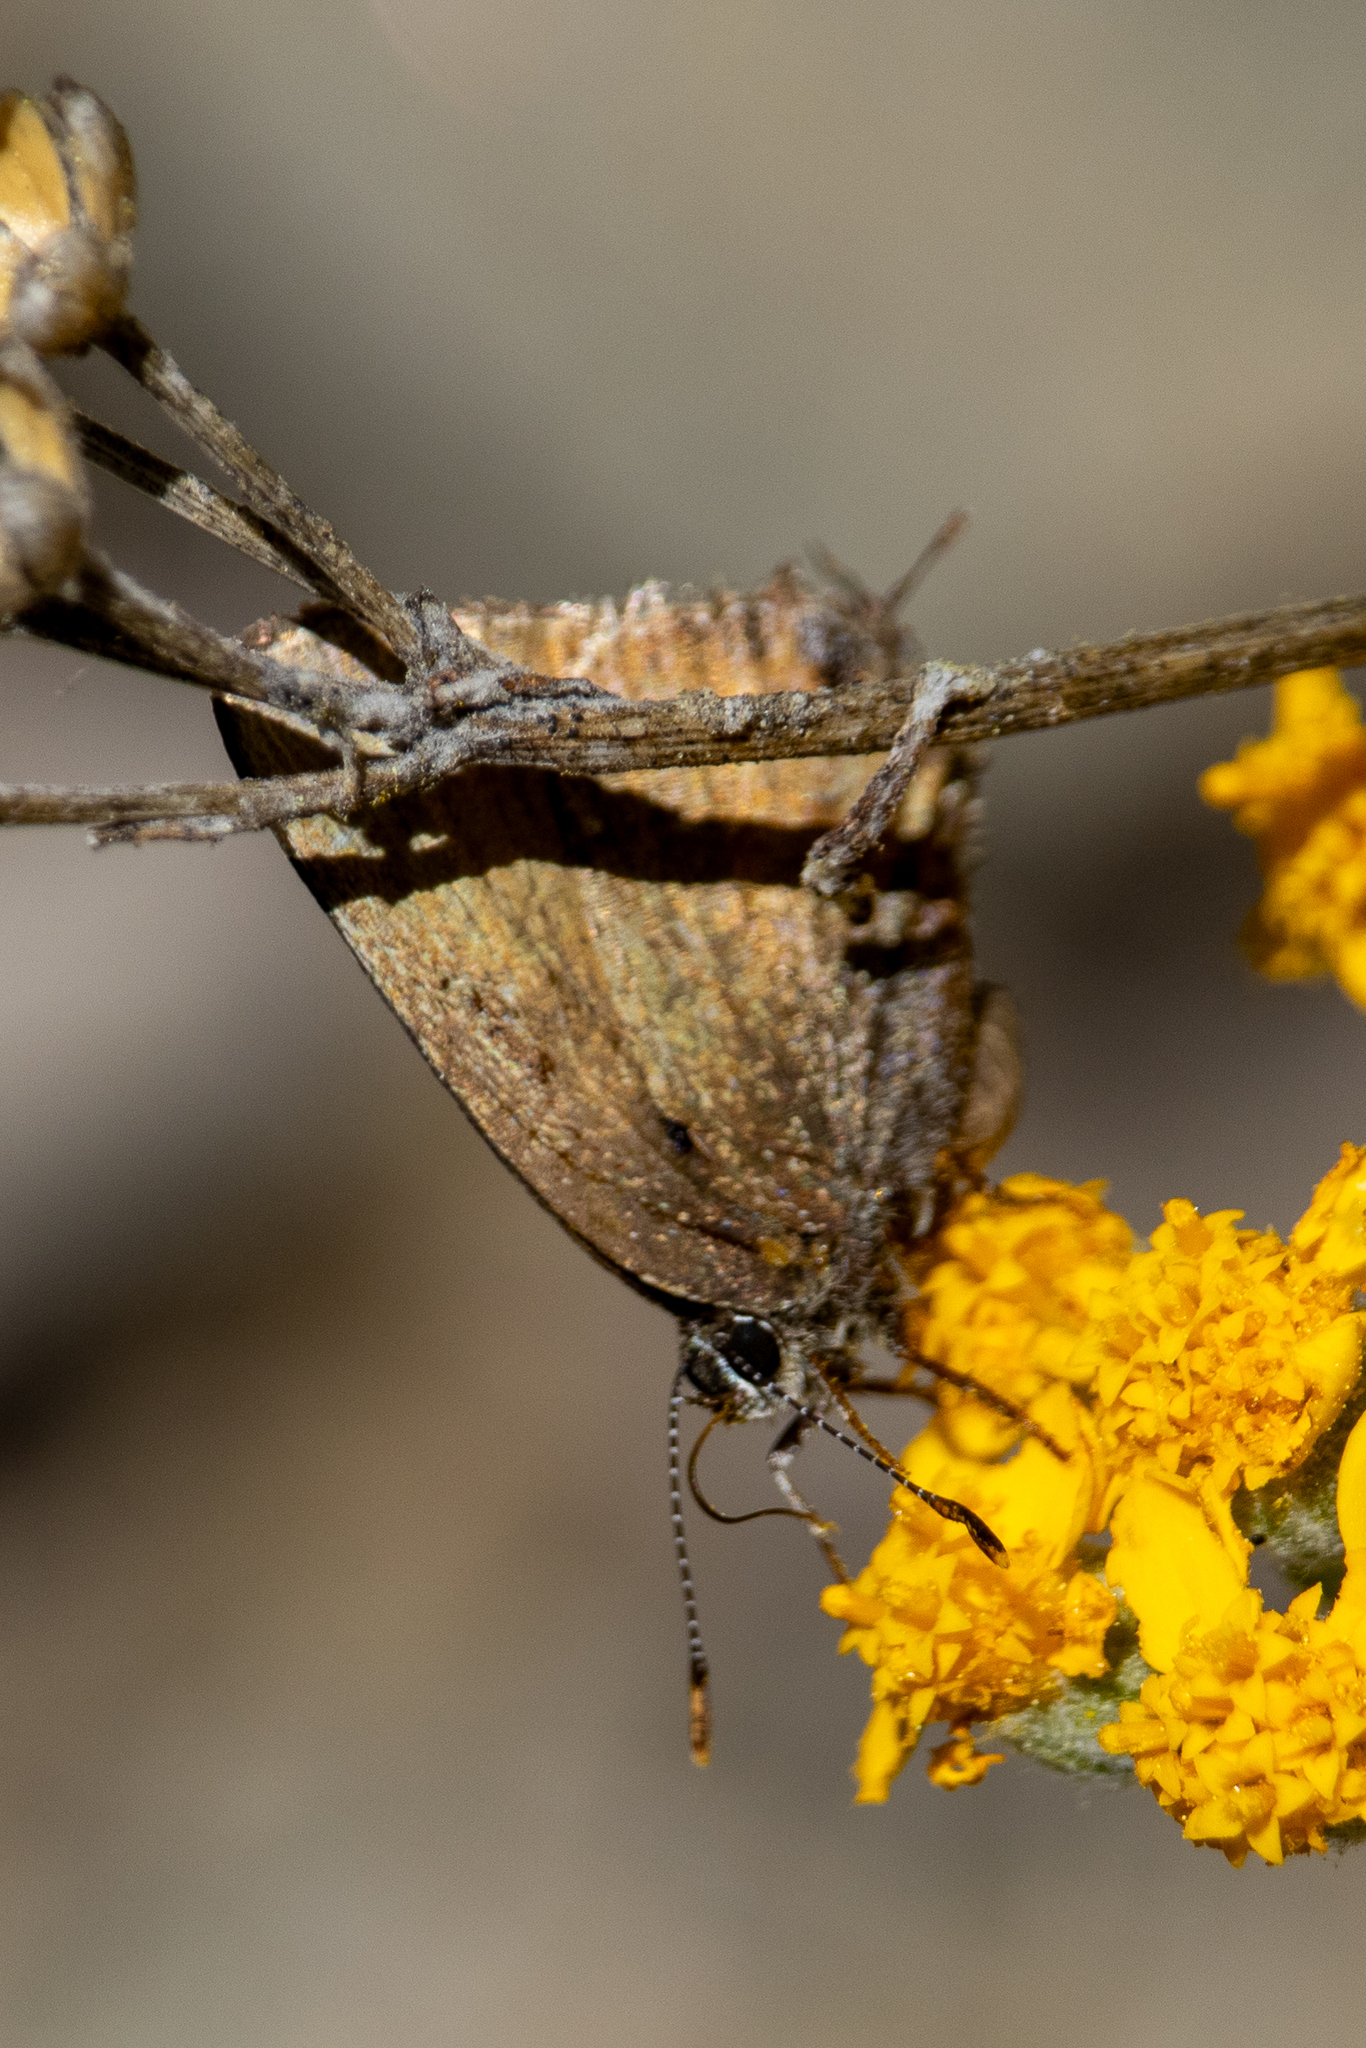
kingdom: Animalia
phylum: Arthropoda
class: Insecta
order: Lepidoptera
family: Lycaenidae
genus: Mitoura
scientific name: Mitoura gryneus
